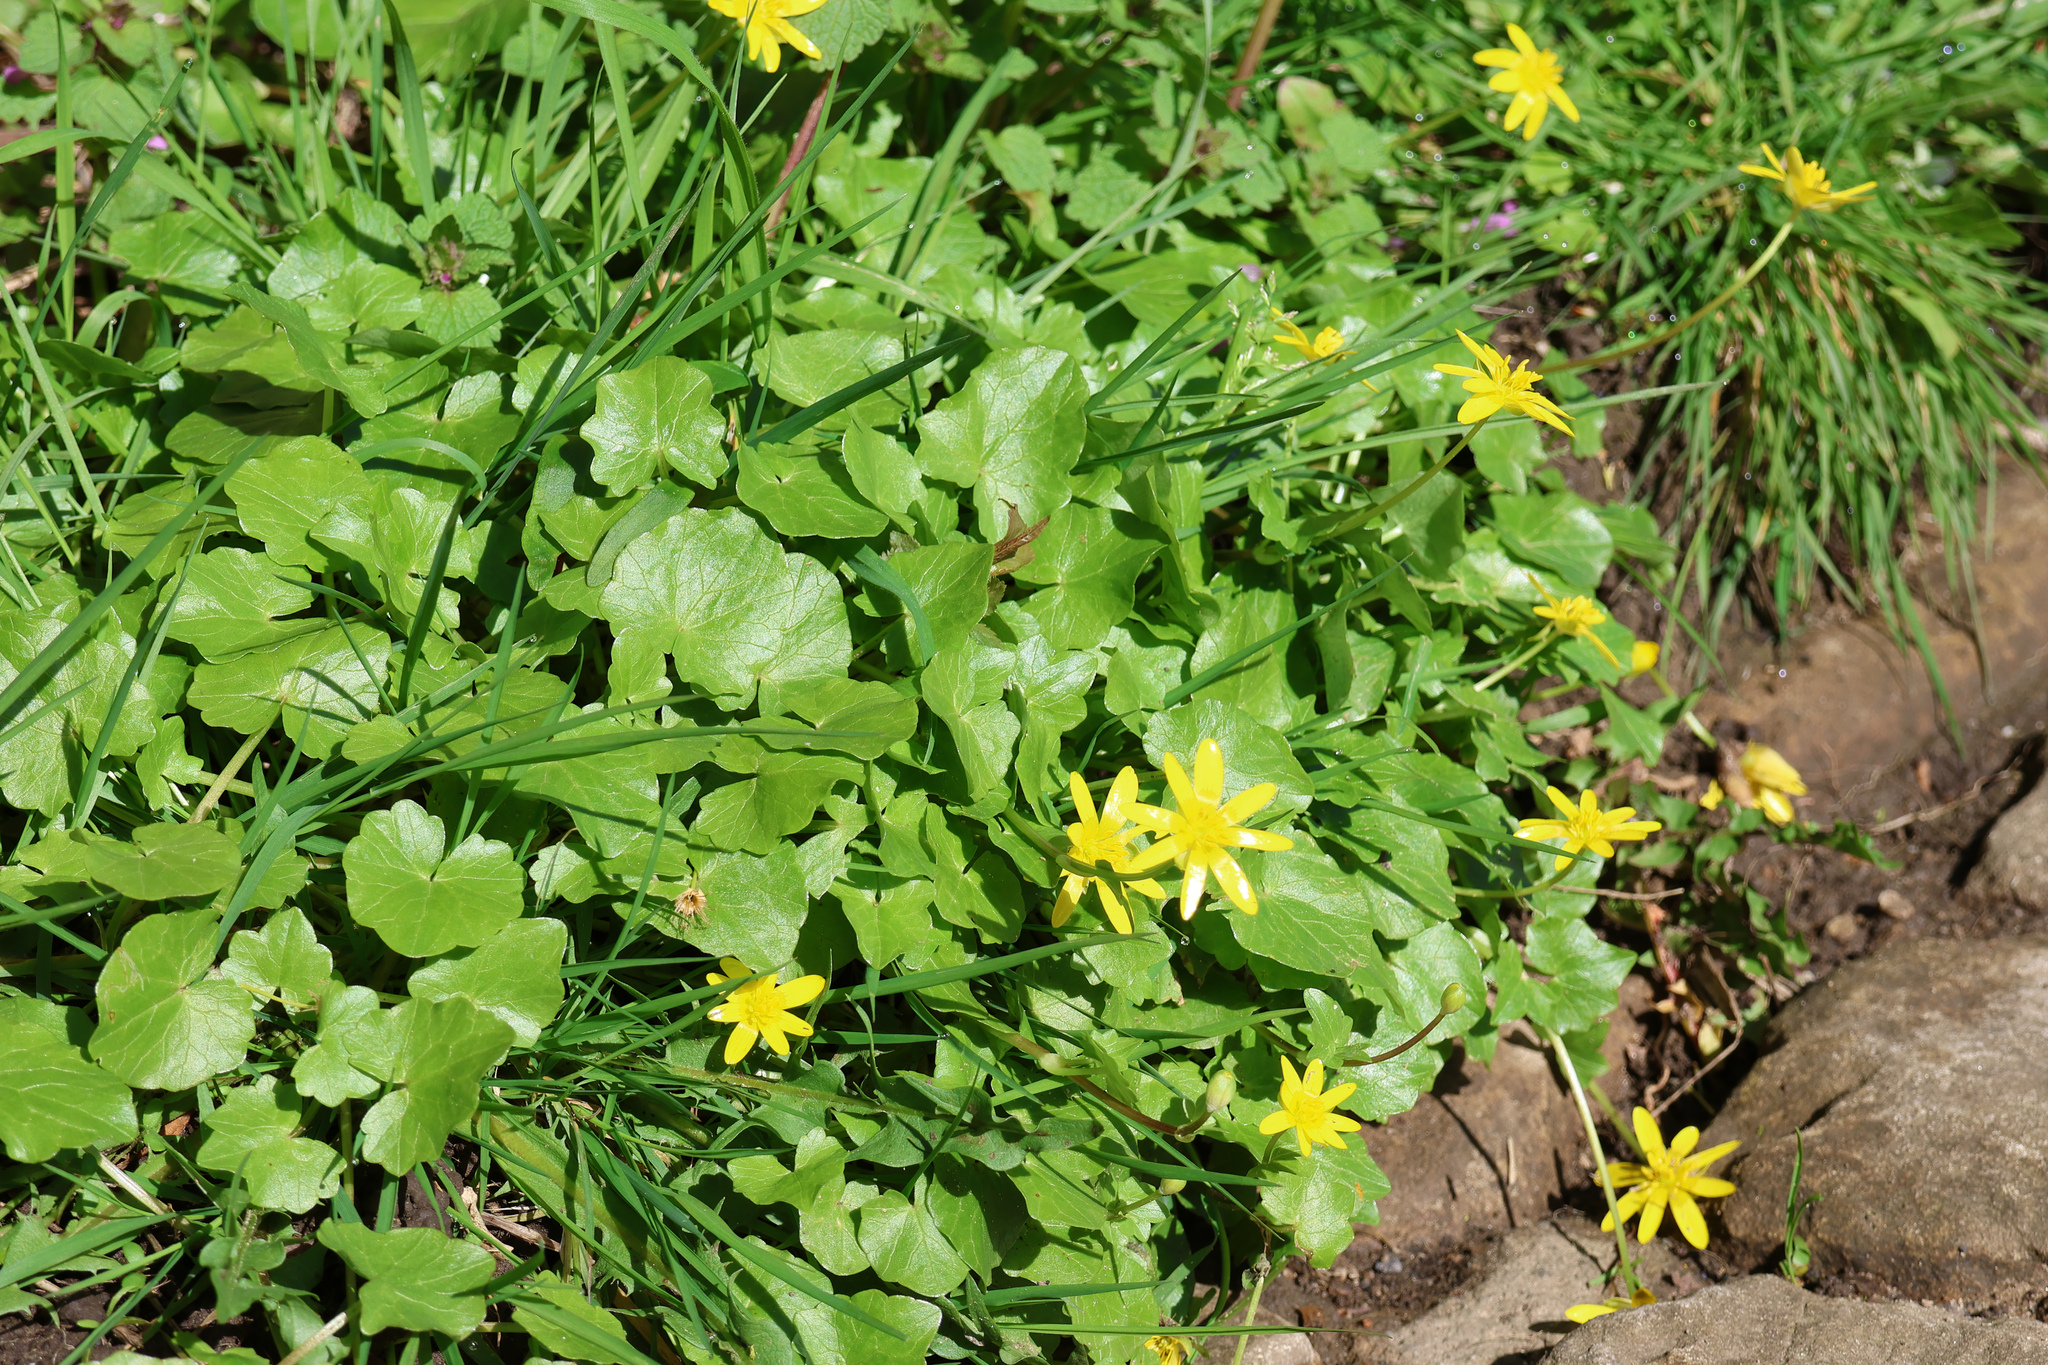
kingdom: Plantae
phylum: Tracheophyta
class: Magnoliopsida
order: Ranunculales
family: Ranunculaceae
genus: Ficaria
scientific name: Ficaria verna
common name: Lesser celandine
